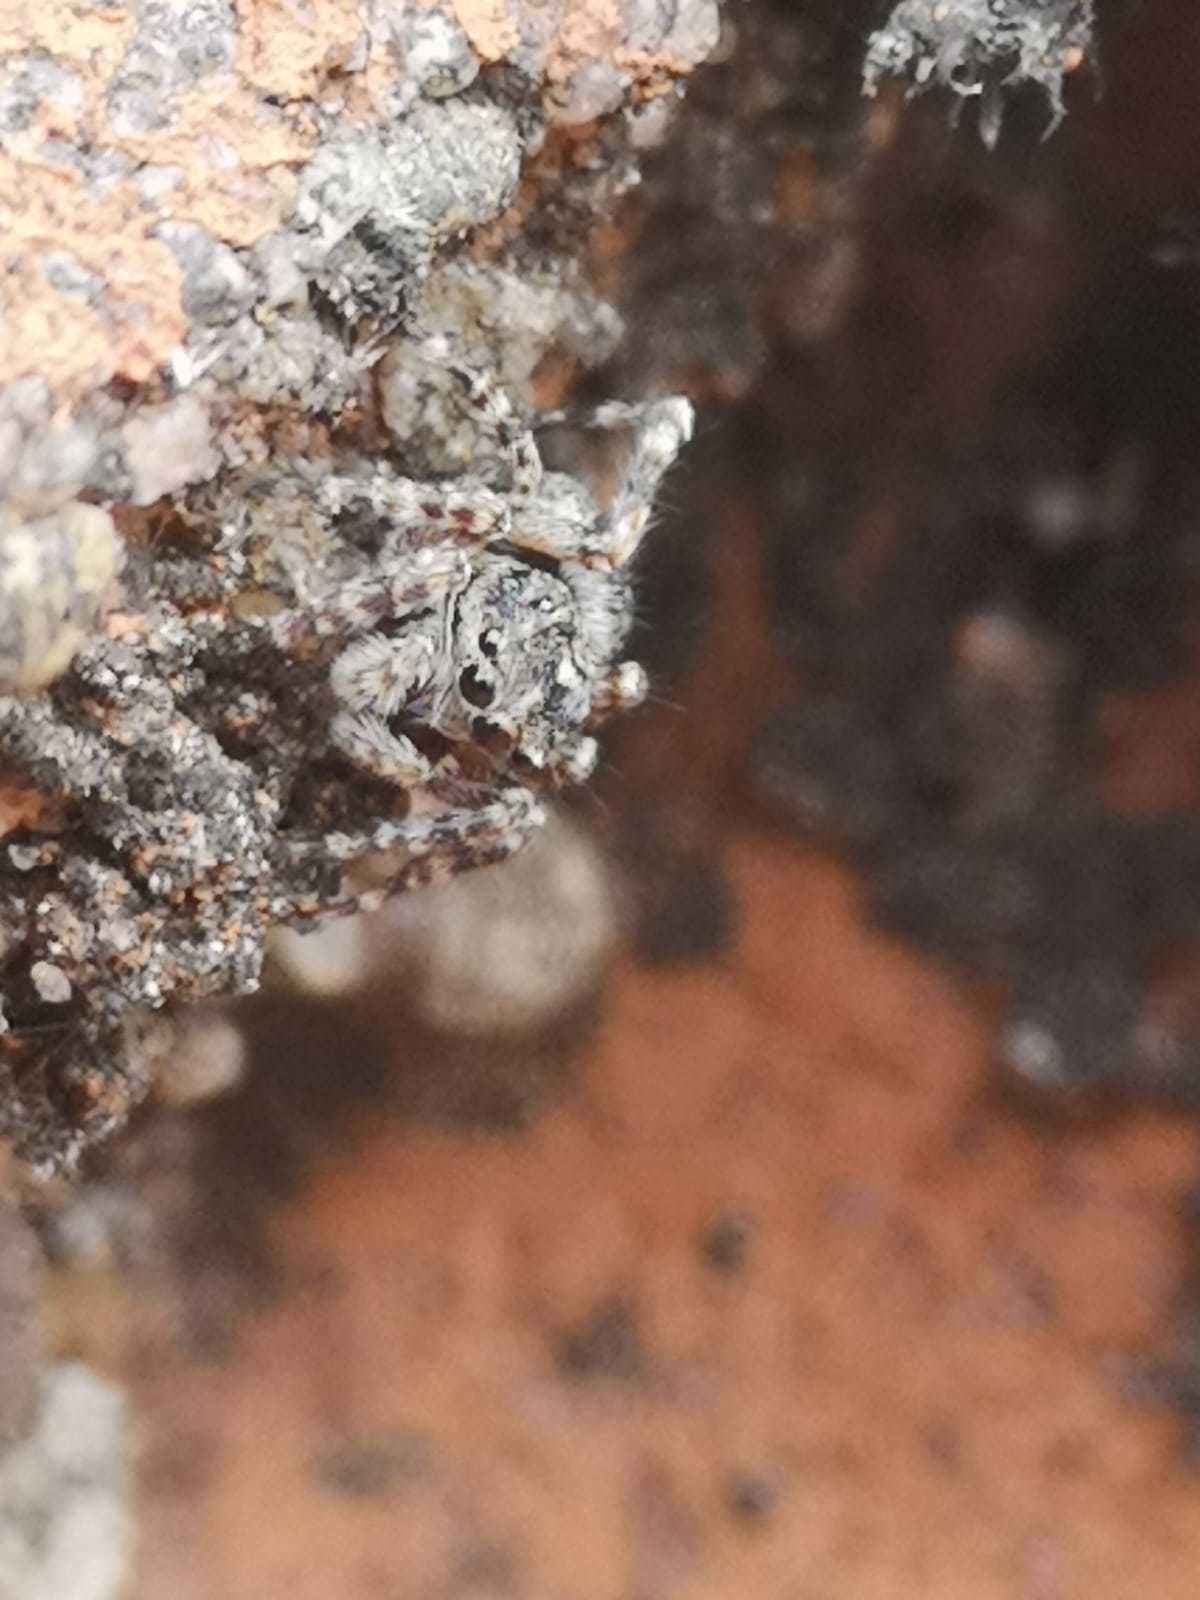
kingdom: Animalia
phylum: Arthropoda
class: Arachnida
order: Araneae
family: Salticidae
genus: Attulus
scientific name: Attulus pubescens
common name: Jumping spider
